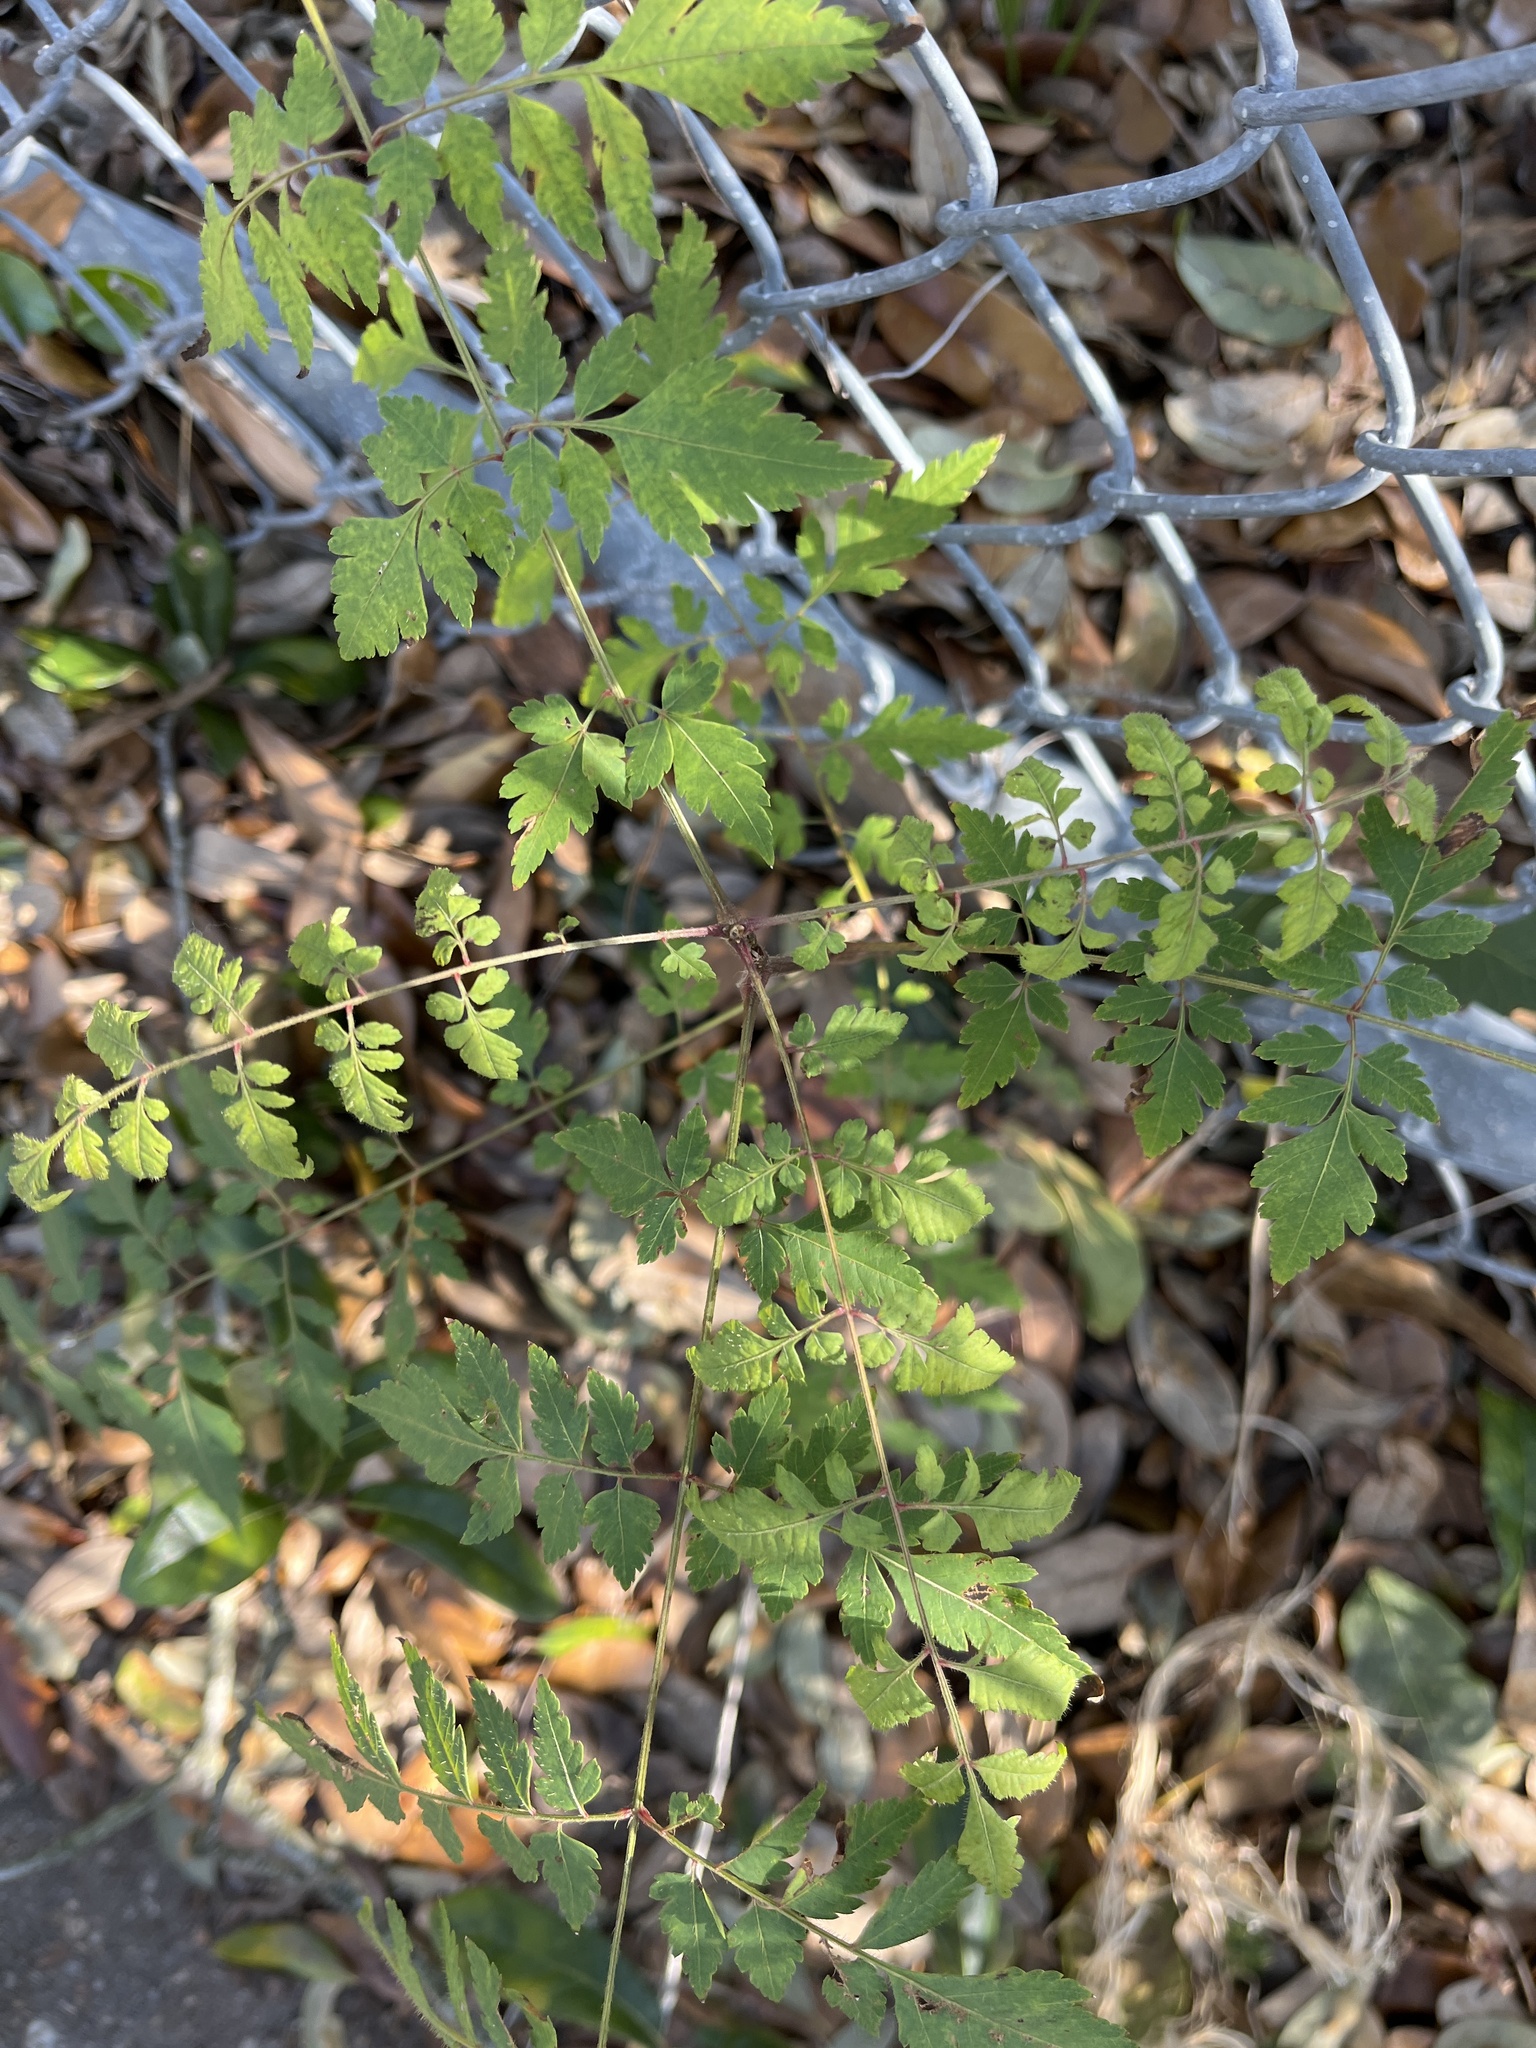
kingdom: Plantae
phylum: Tracheophyta
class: Magnoliopsida
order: Vitales
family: Vitaceae
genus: Nekemias
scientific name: Nekemias arborea
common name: Peppervine
